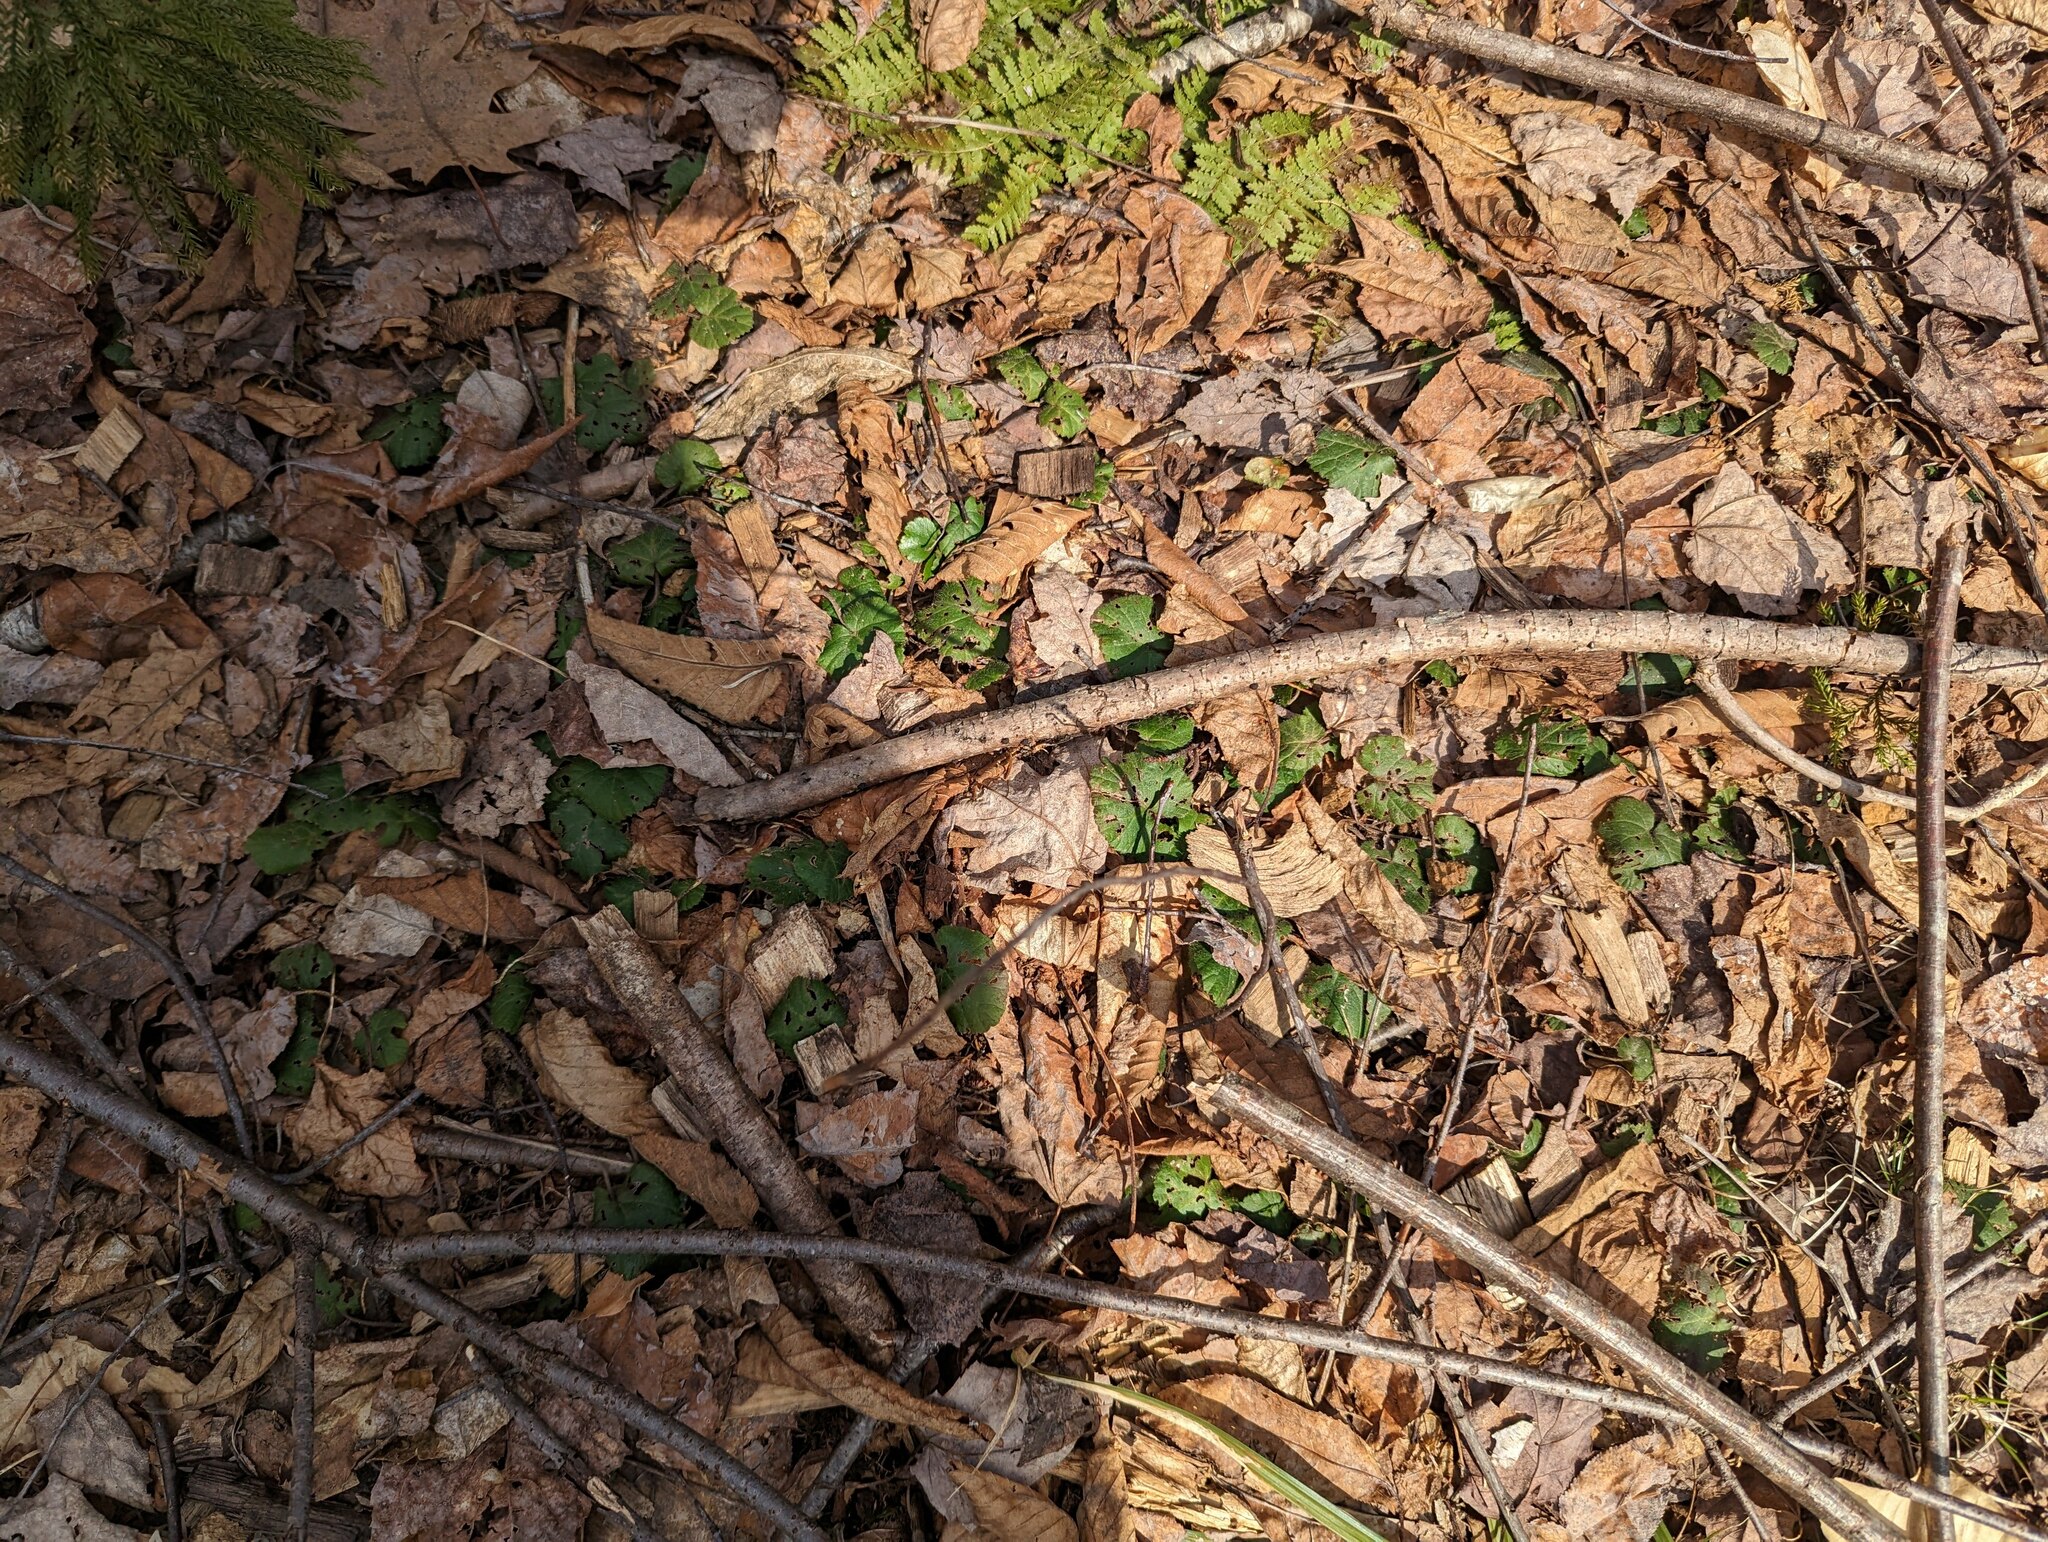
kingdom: Plantae
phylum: Tracheophyta
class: Magnoliopsida
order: Rosales
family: Rosaceae
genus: Dalibarda
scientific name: Dalibarda repens
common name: Dewdrop
